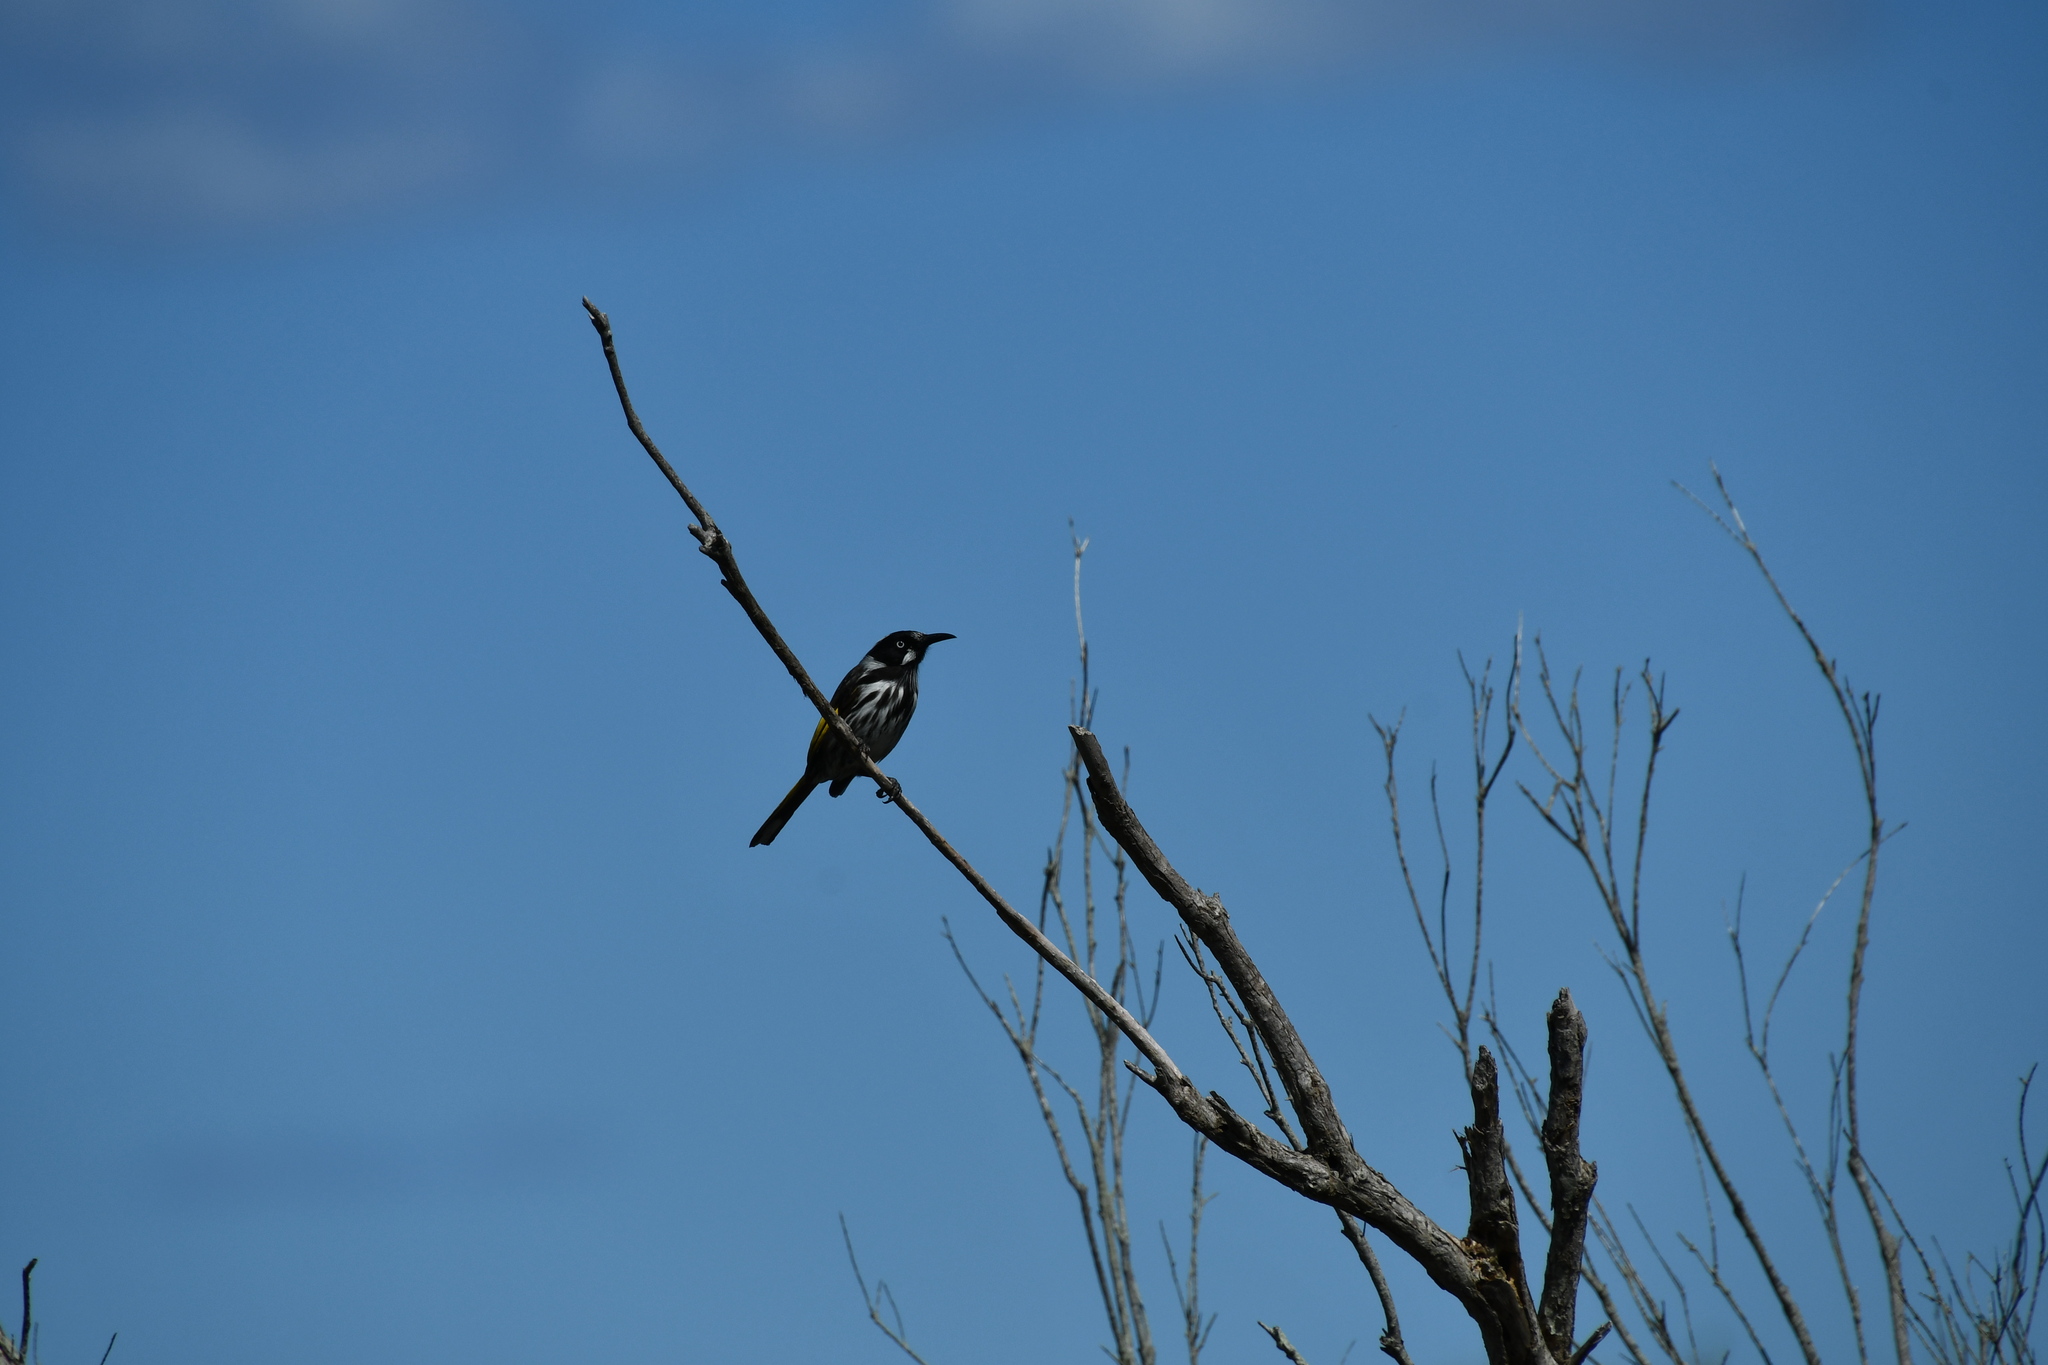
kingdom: Animalia
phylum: Chordata
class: Aves
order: Passeriformes
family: Meliphagidae
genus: Phylidonyris
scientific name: Phylidonyris novaehollandiae
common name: New holland honeyeater
